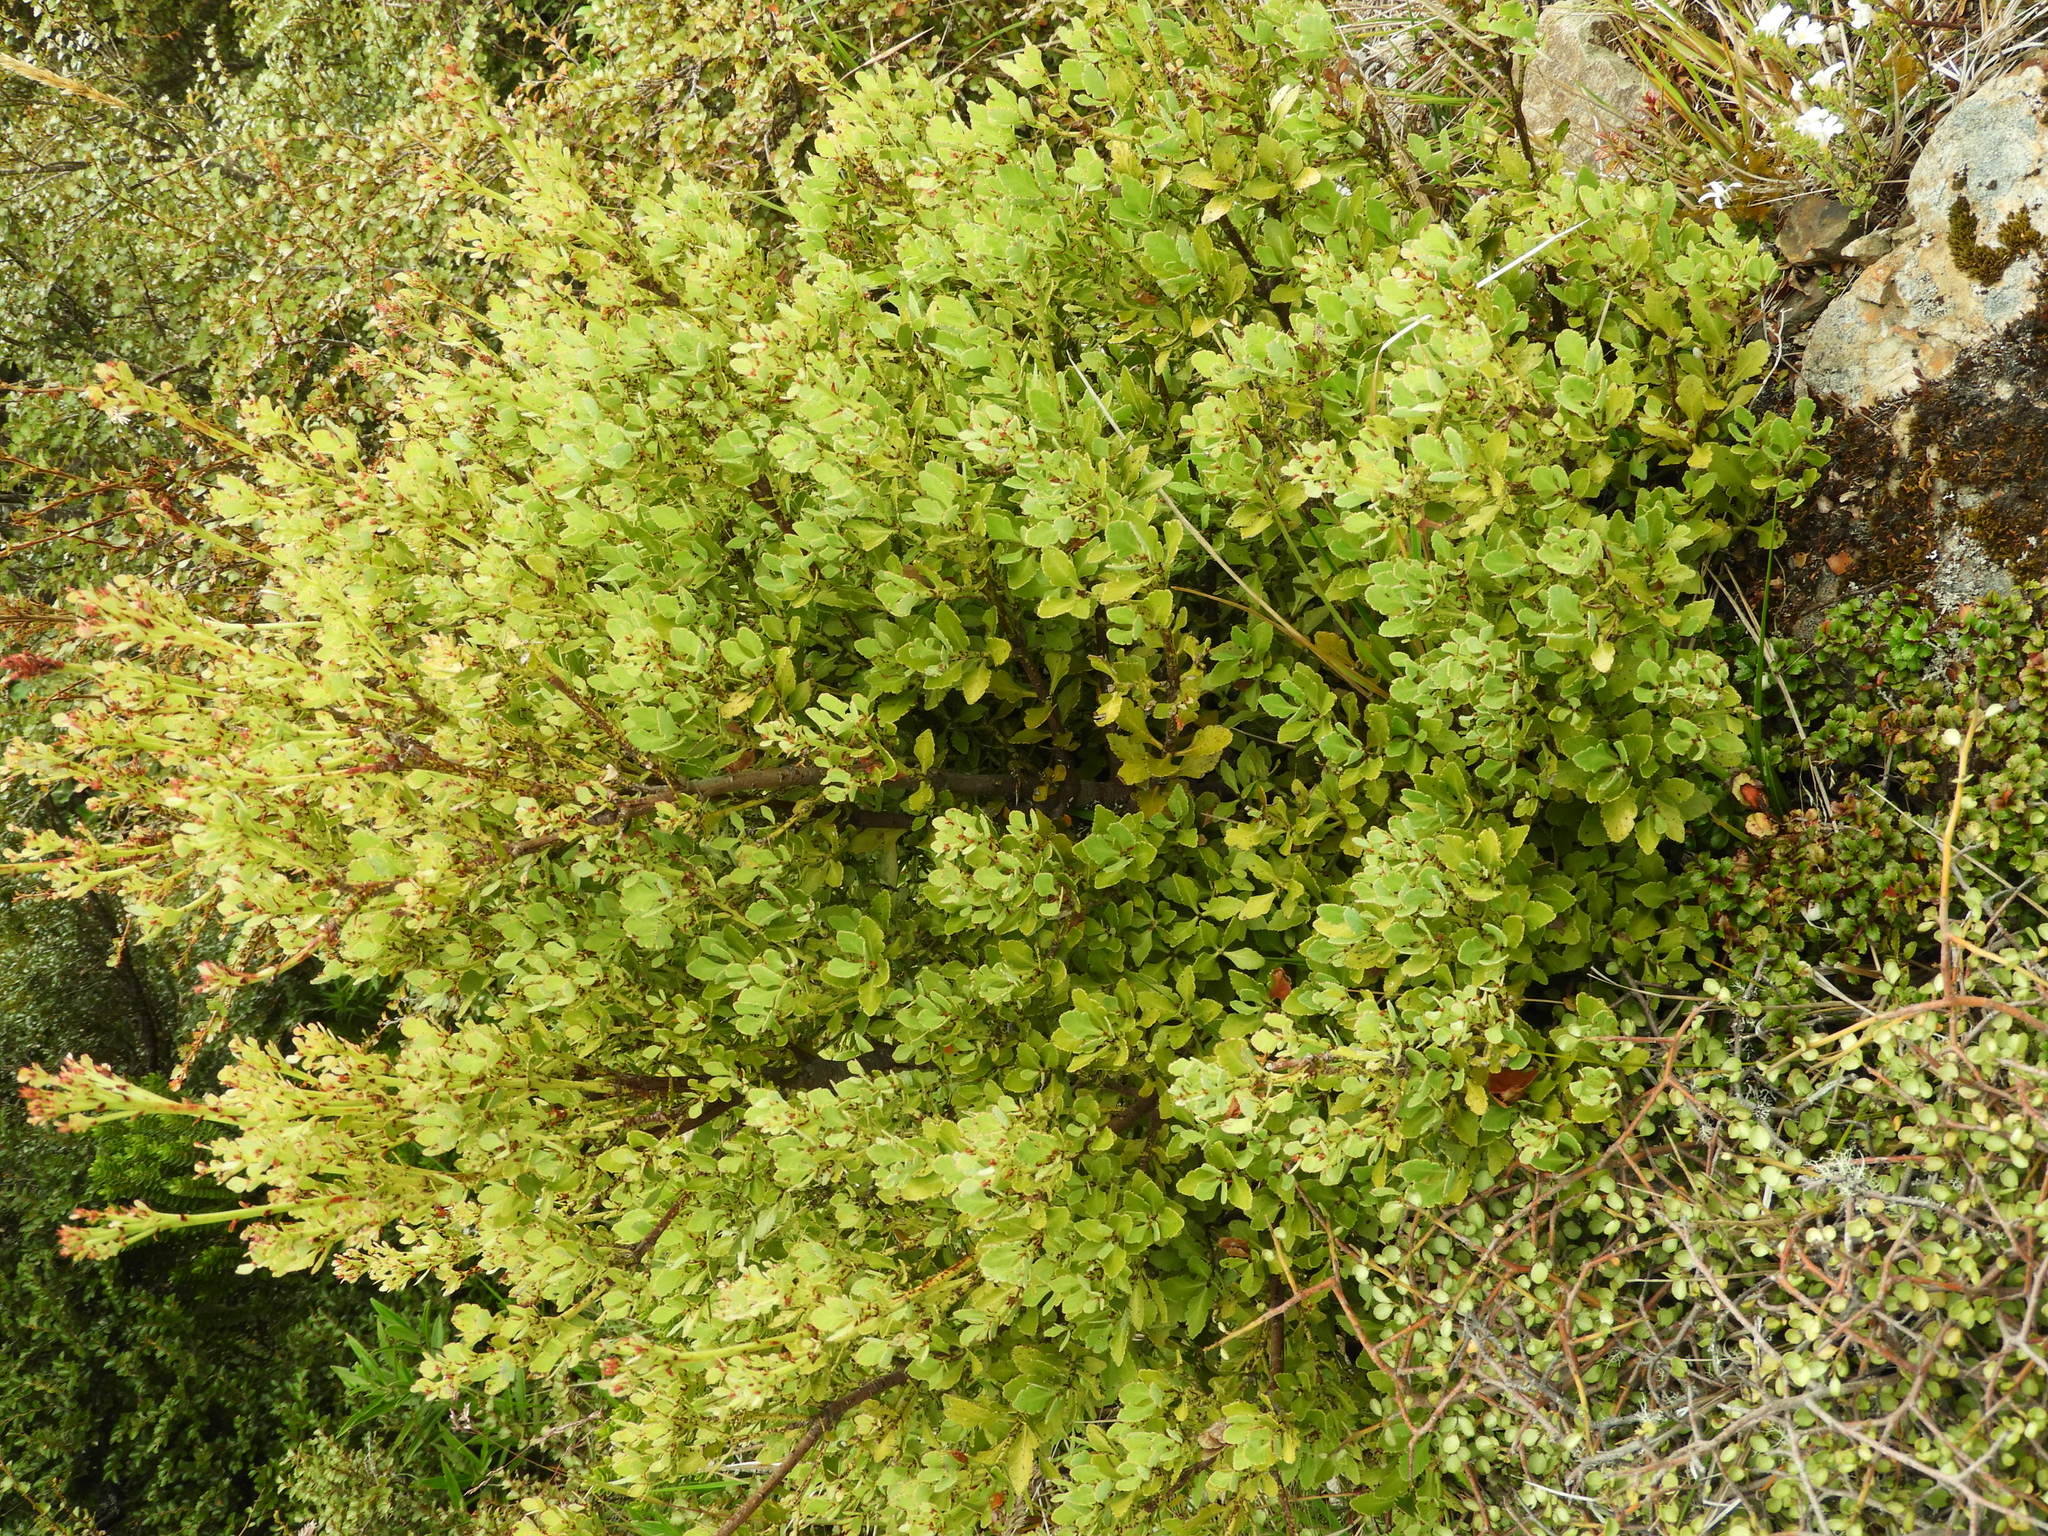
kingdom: Plantae
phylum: Tracheophyta
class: Pinopsida
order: Pinales
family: Phyllocladaceae
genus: Phyllocladus
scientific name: Phyllocladus trichomanoides
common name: Celery pine
